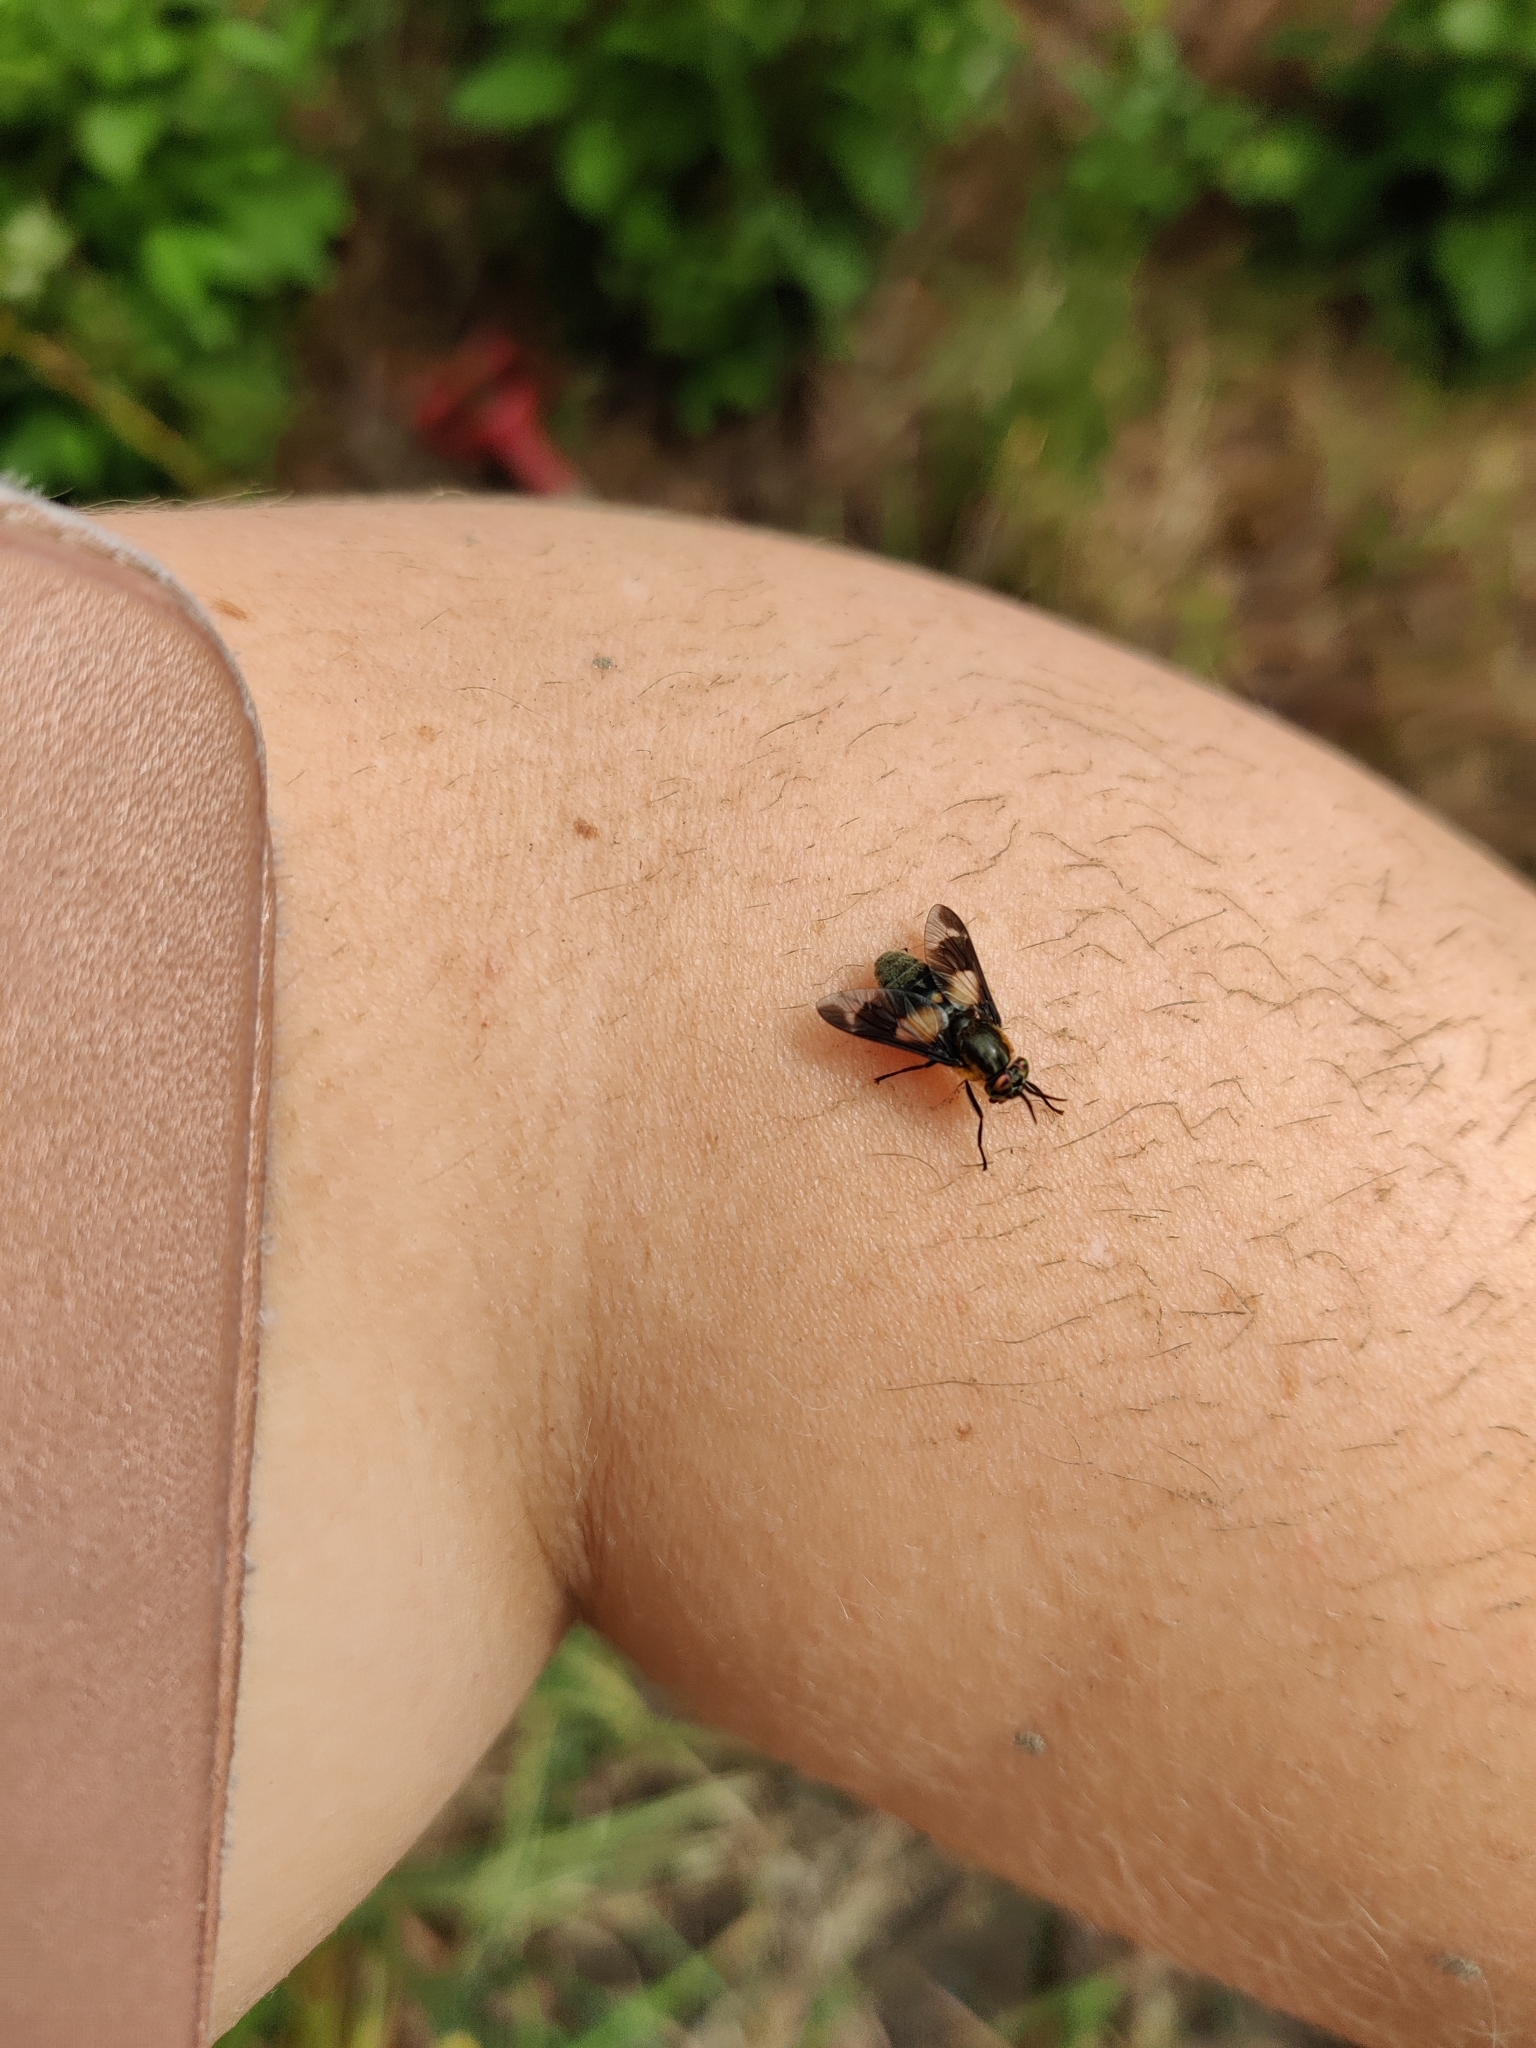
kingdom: Animalia
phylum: Arthropoda
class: Insecta
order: Diptera
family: Tabanidae
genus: Chrysops
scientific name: Chrysops caecutiens
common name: Splayed deerfly
